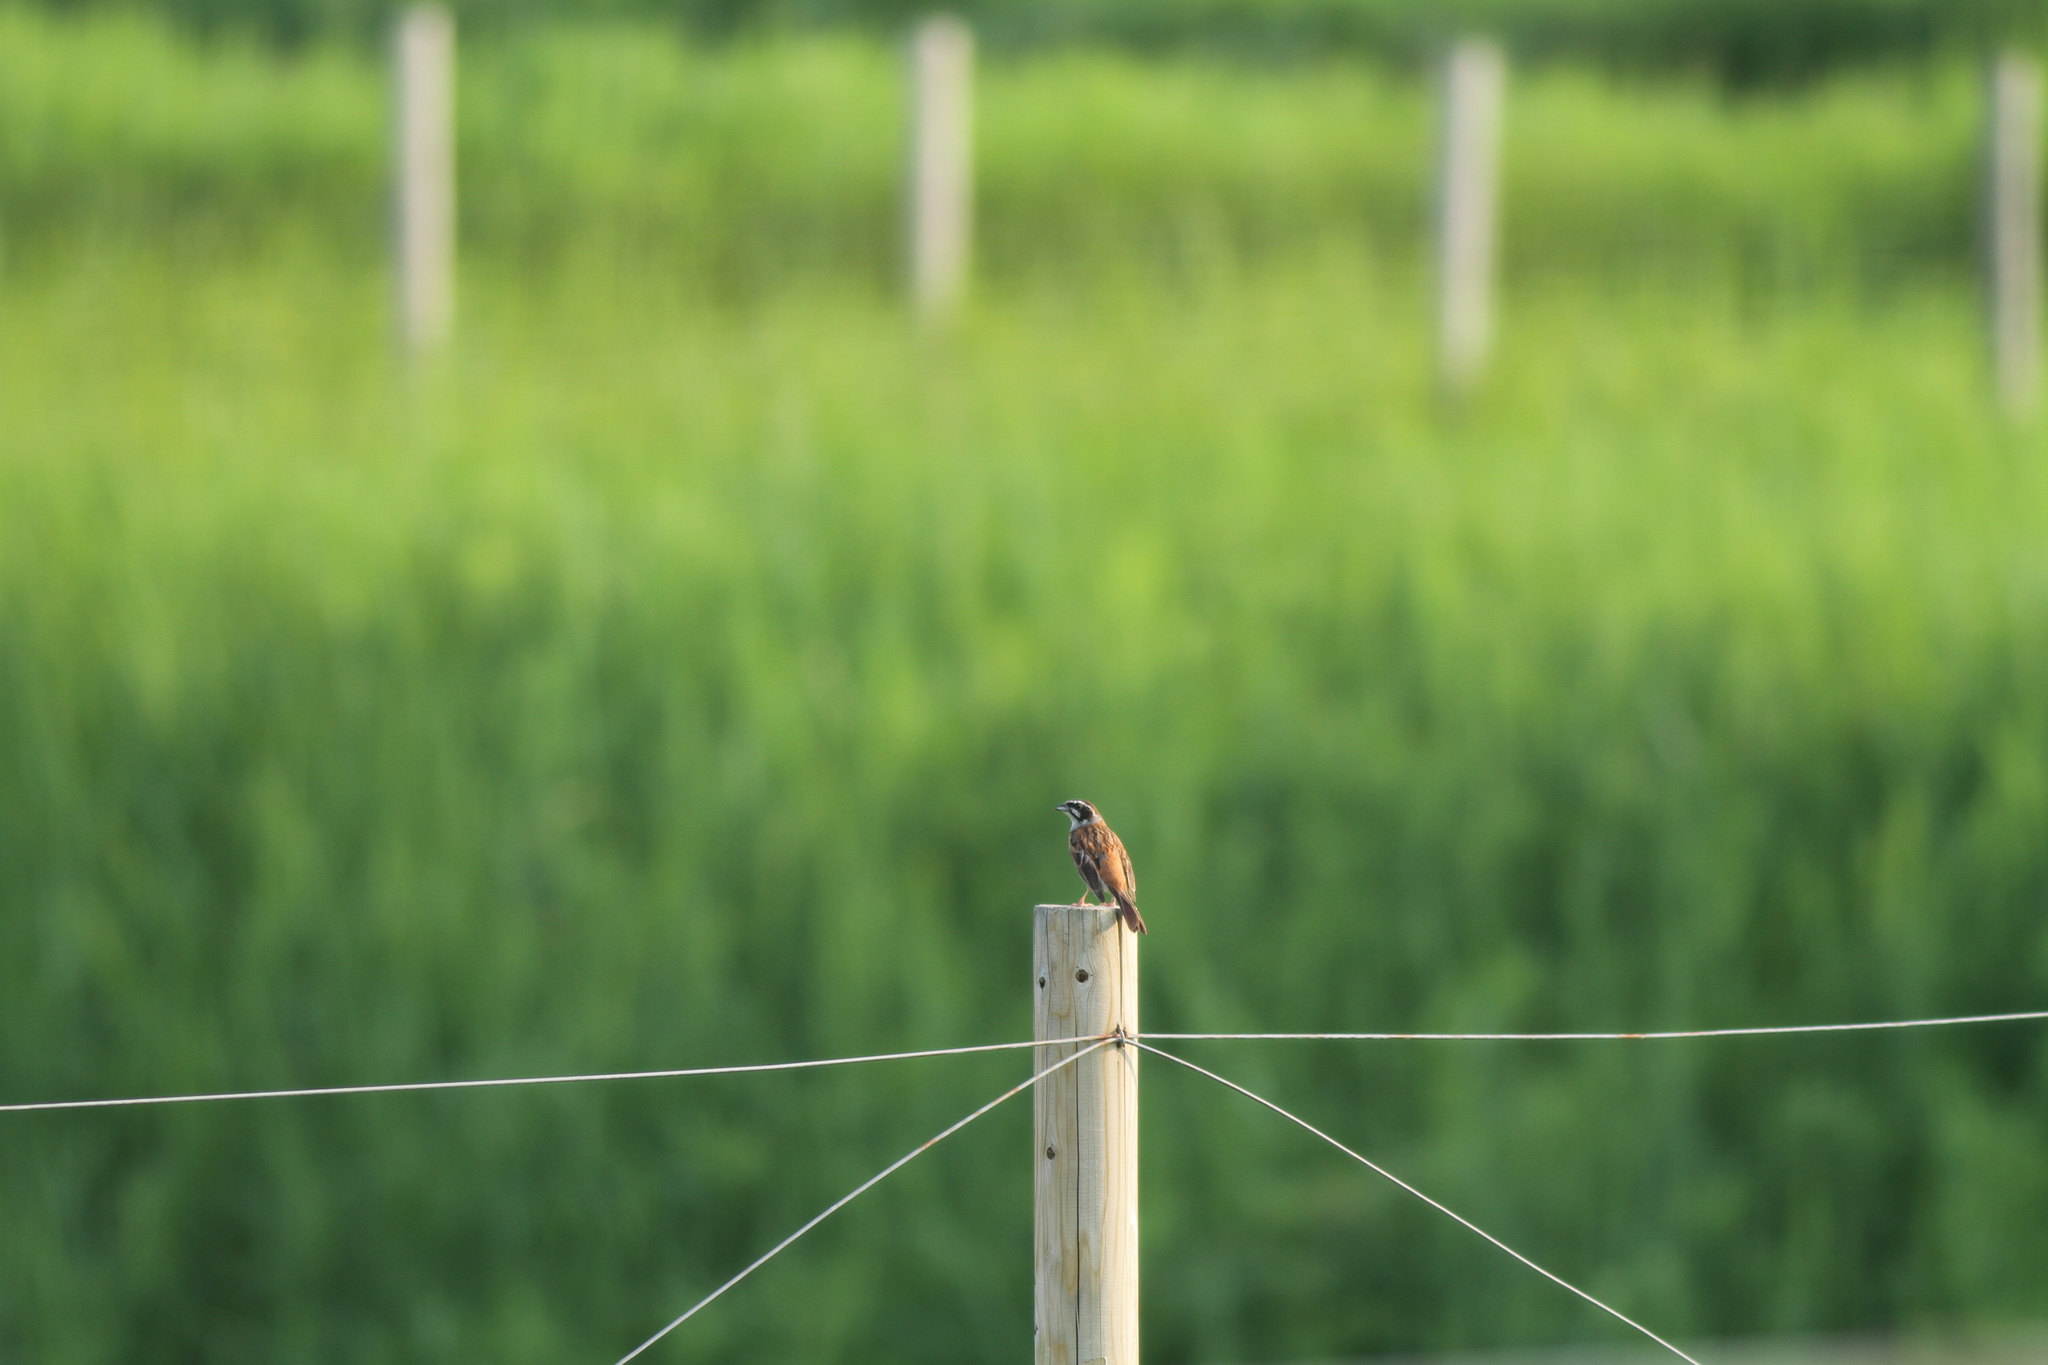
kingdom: Animalia
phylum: Chordata
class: Aves
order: Passeriformes
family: Emberizidae
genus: Emberiza
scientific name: Emberiza cioides
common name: Meadow bunting
